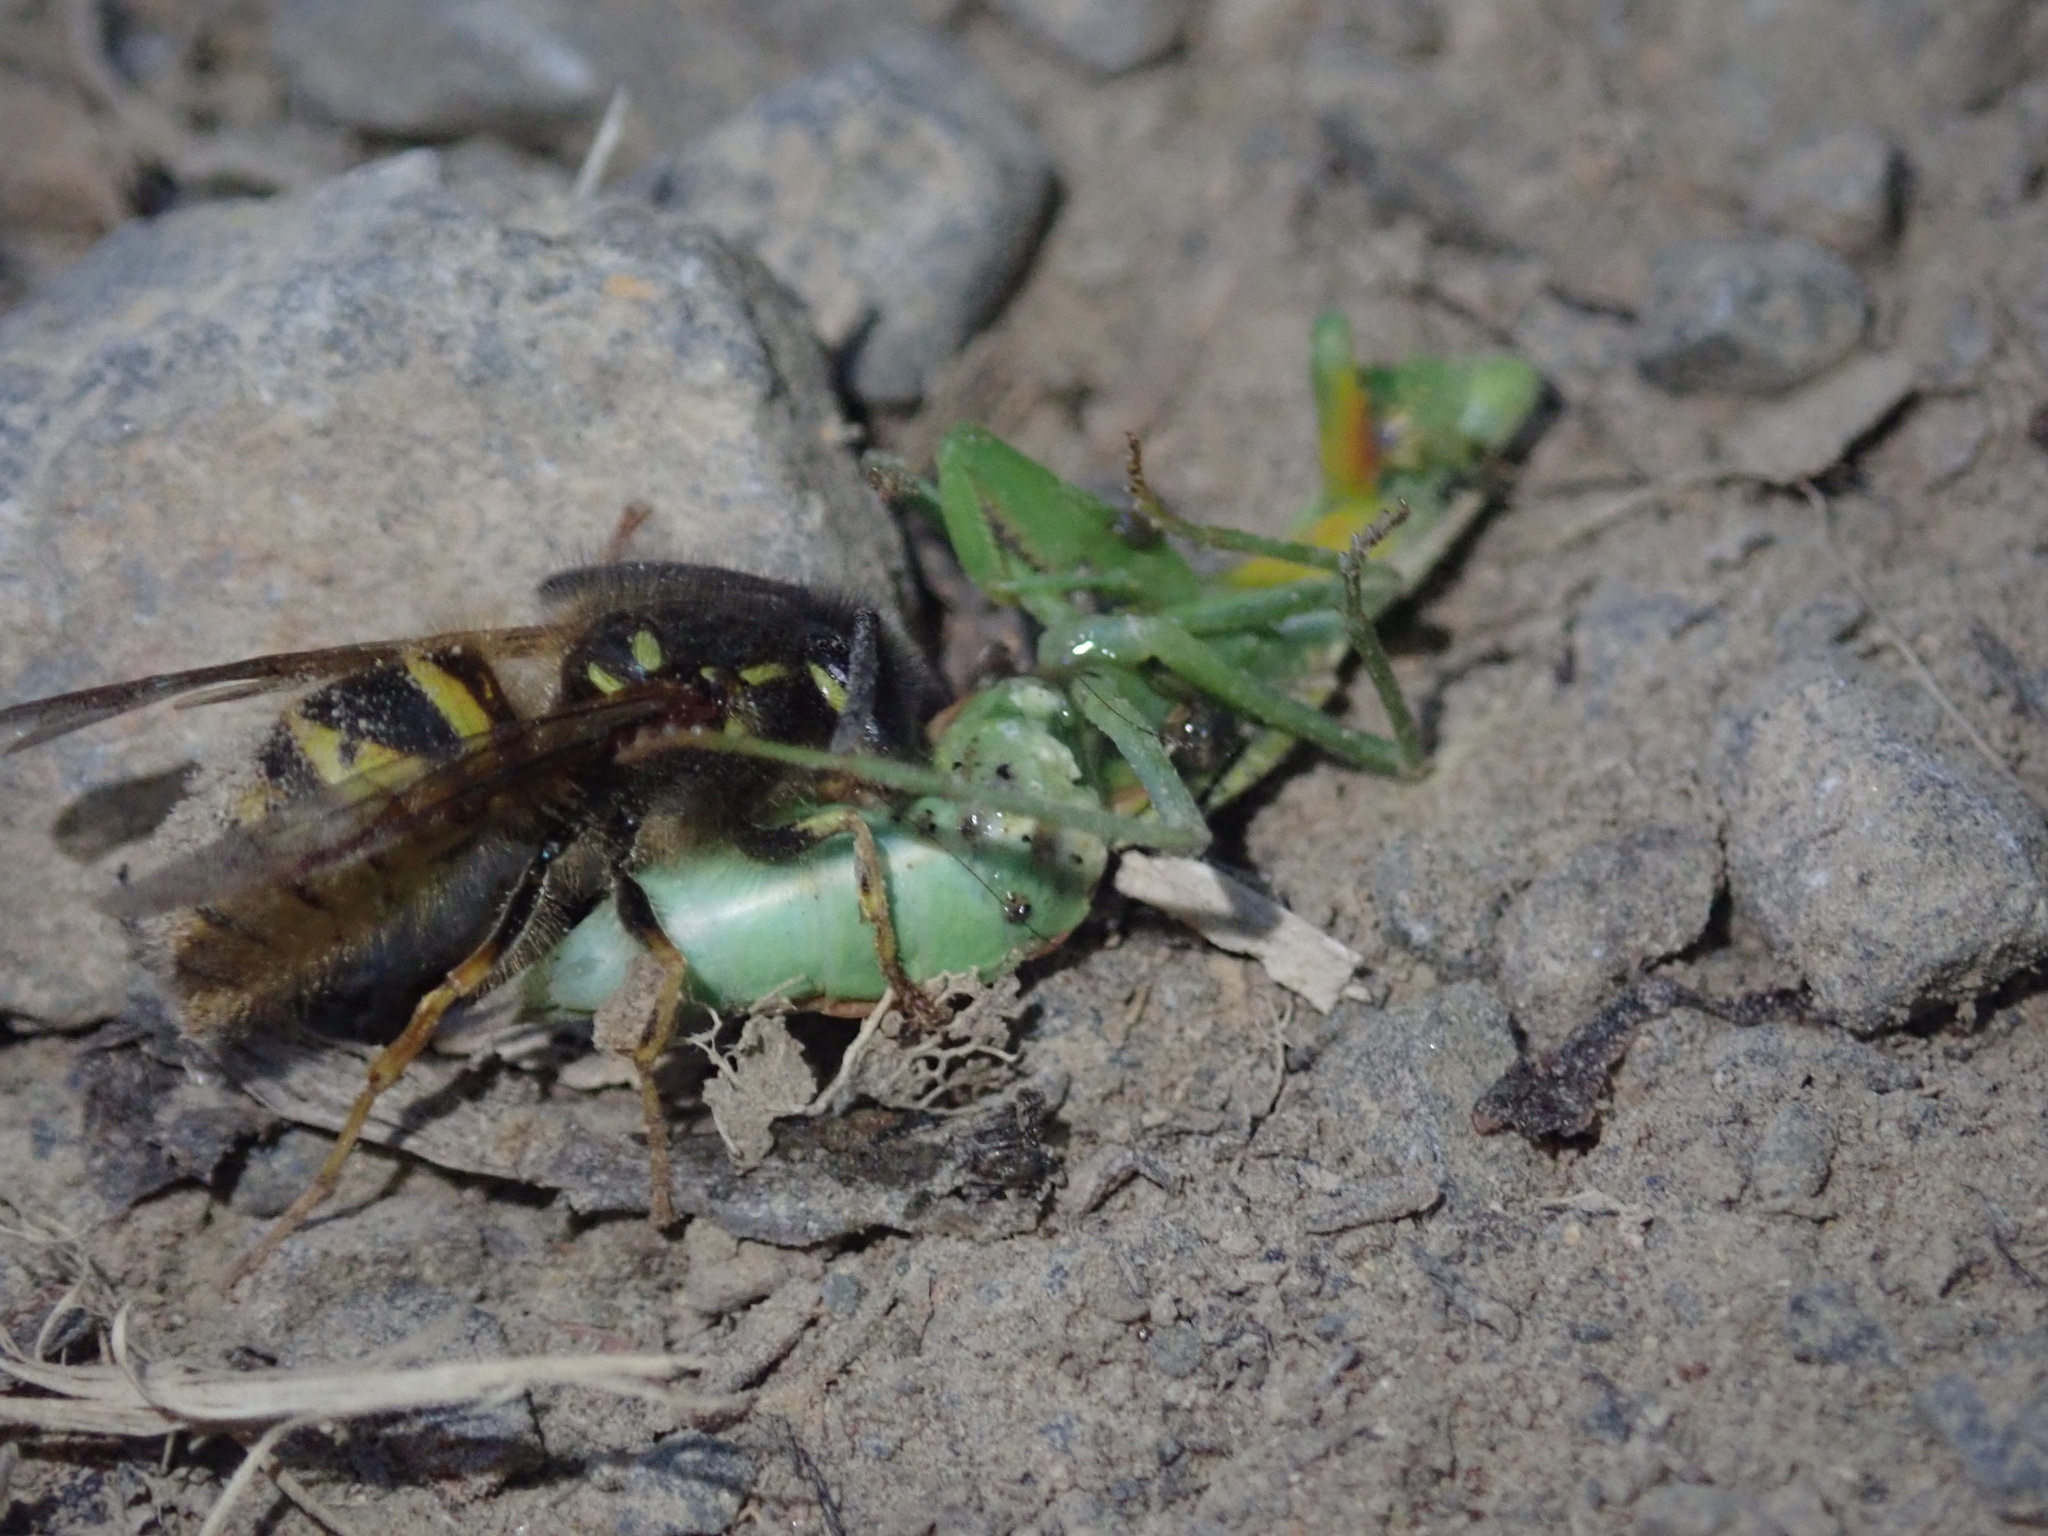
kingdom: Animalia
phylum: Arthropoda
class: Insecta
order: Mantodea
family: Mantidae
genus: Orthodera
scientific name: Orthodera novaezealandiae
